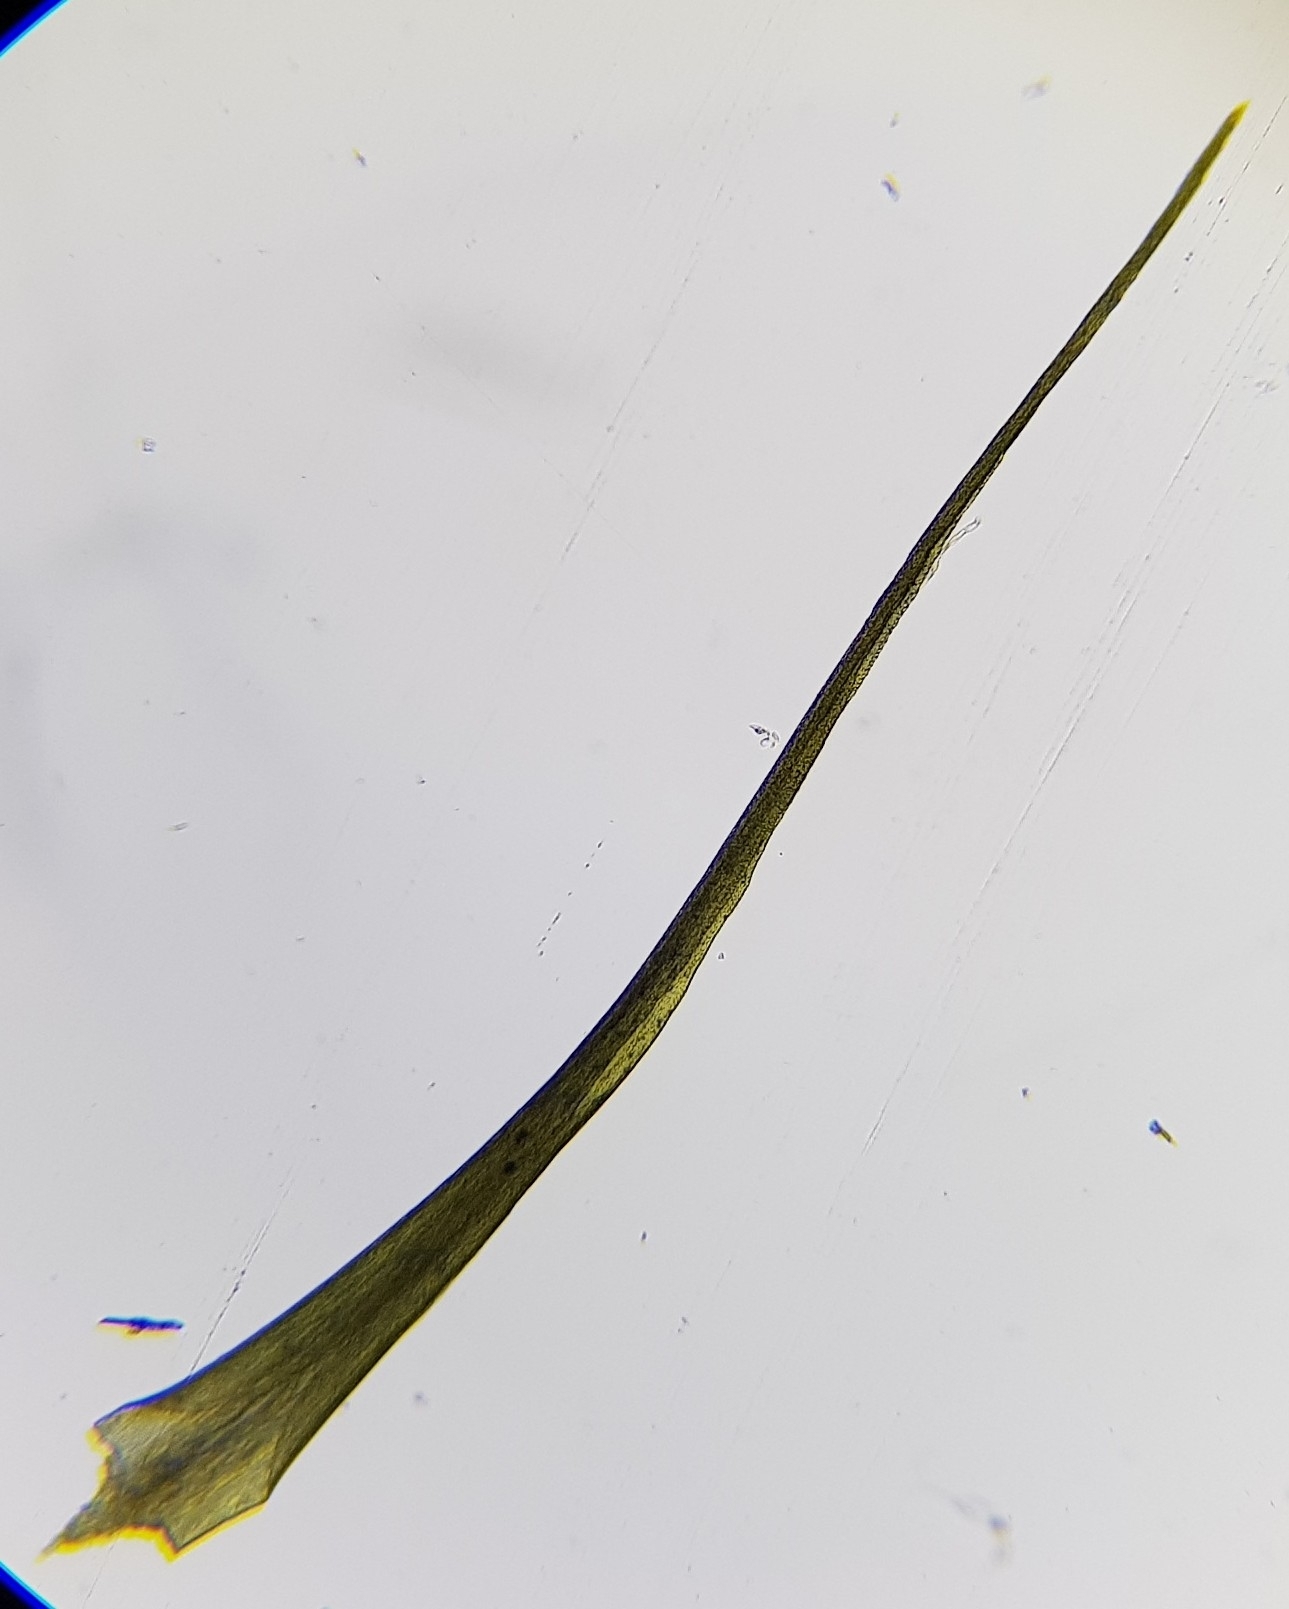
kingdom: Plantae
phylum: Bryophyta
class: Bryopsida
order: Scouleriales
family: Flexitrichaceae
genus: Flexitrichum
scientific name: Flexitrichum flexicaule
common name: Bendy ditrichum
